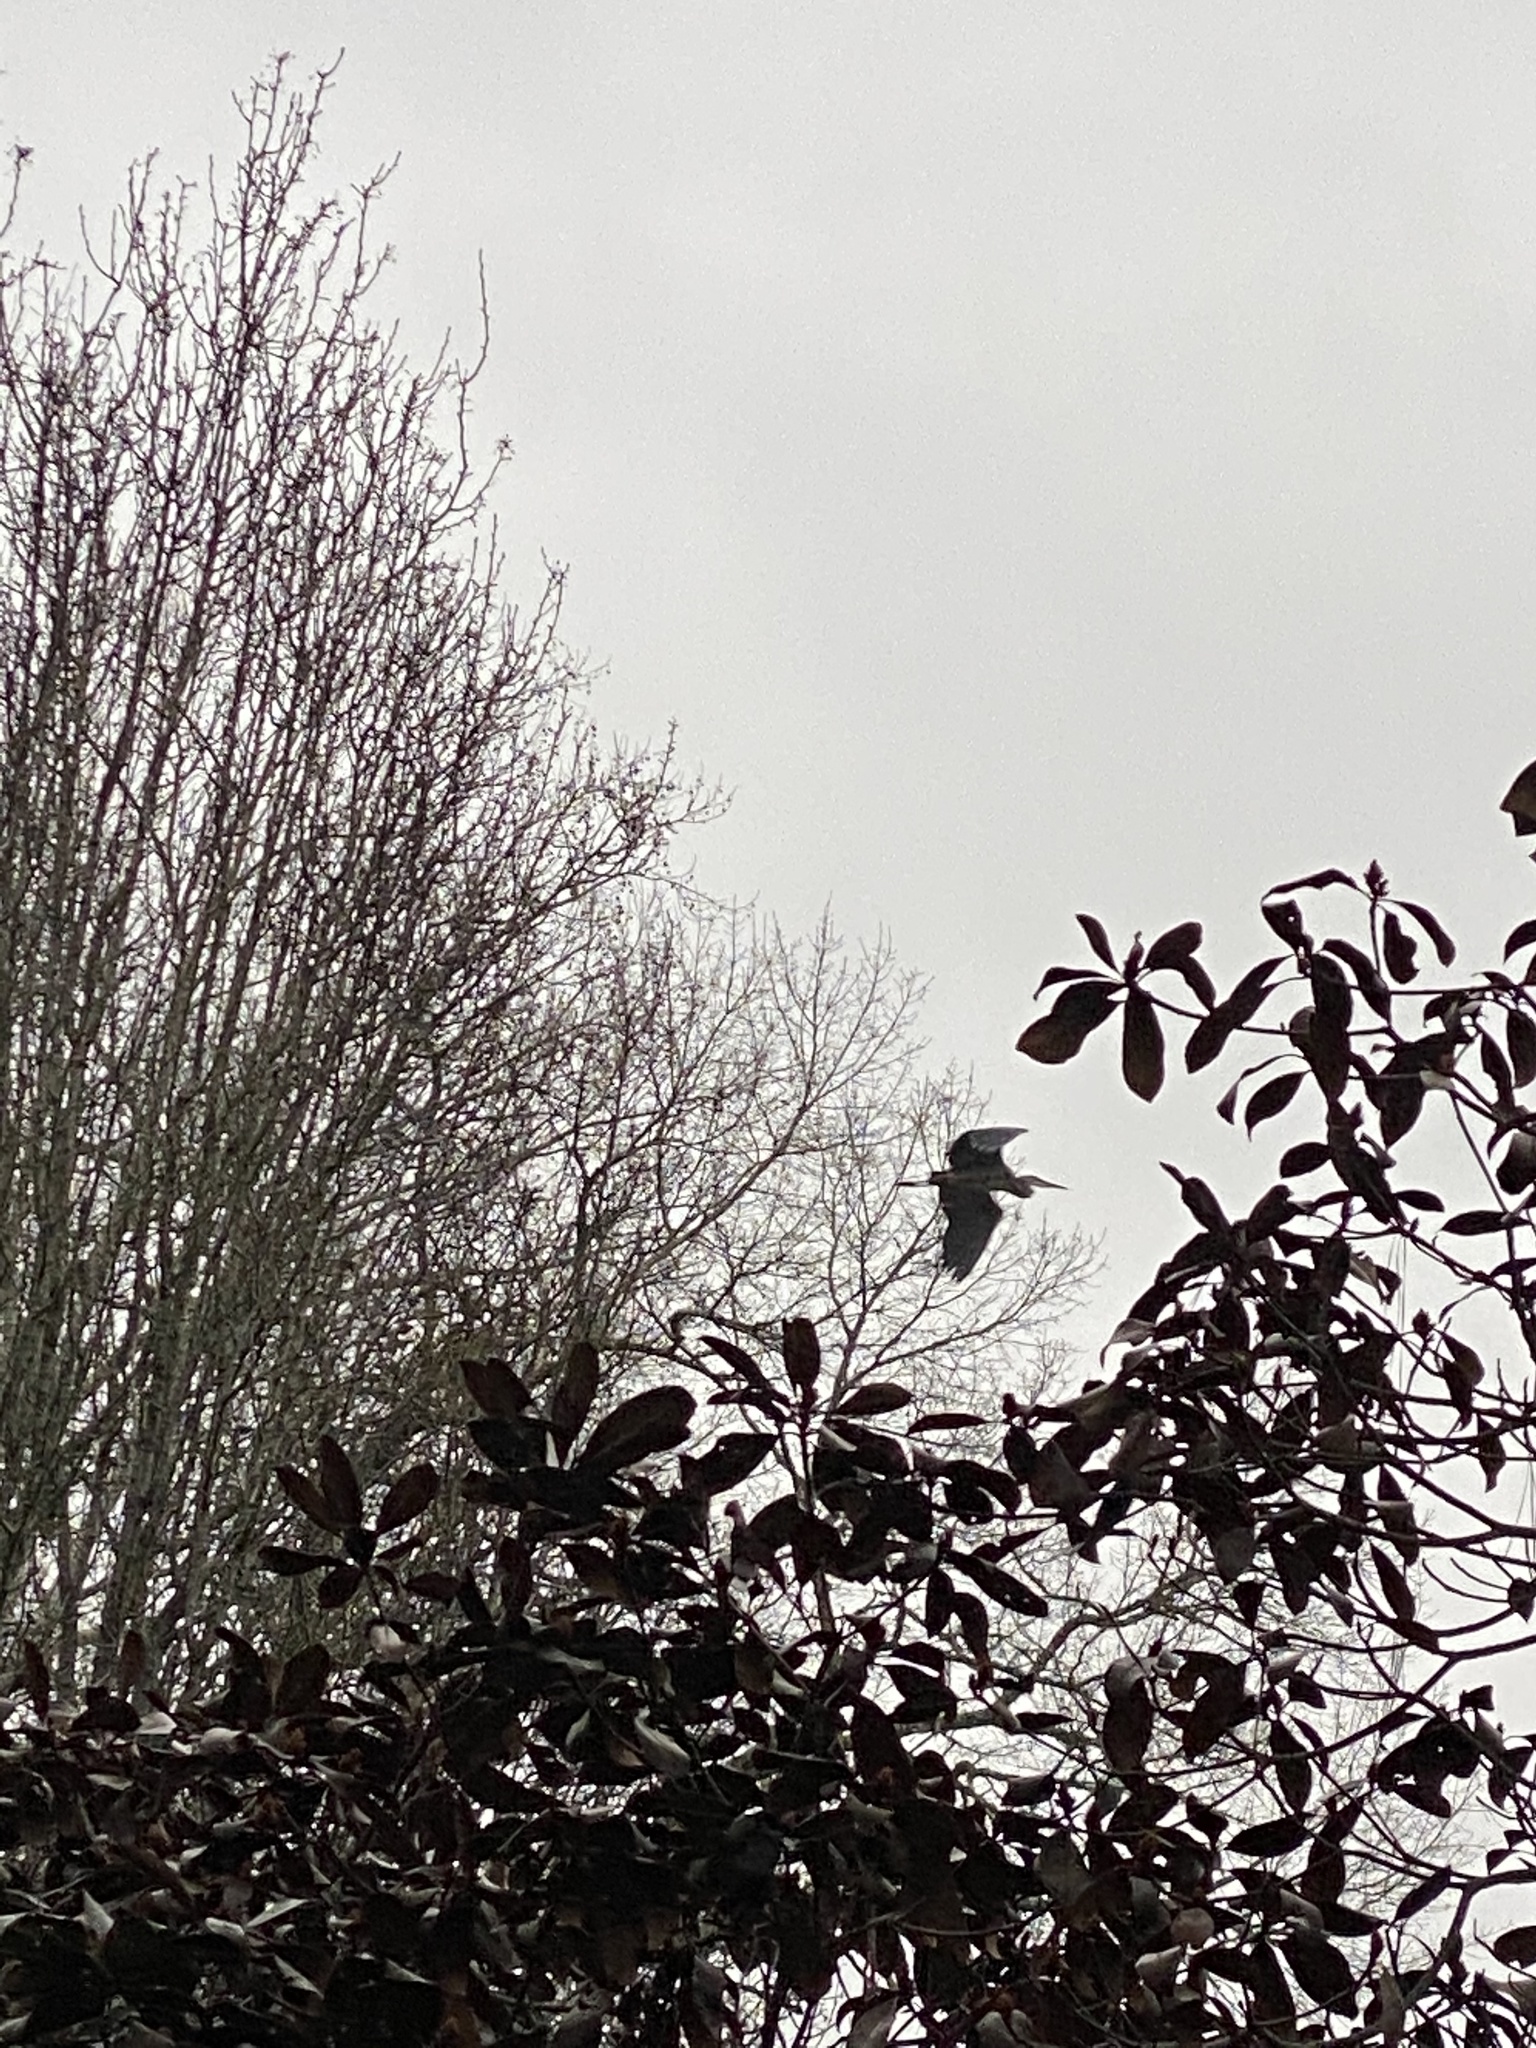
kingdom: Animalia
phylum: Chordata
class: Aves
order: Pelecaniformes
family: Ardeidae
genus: Ardea
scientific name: Ardea herodias
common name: Great blue heron
